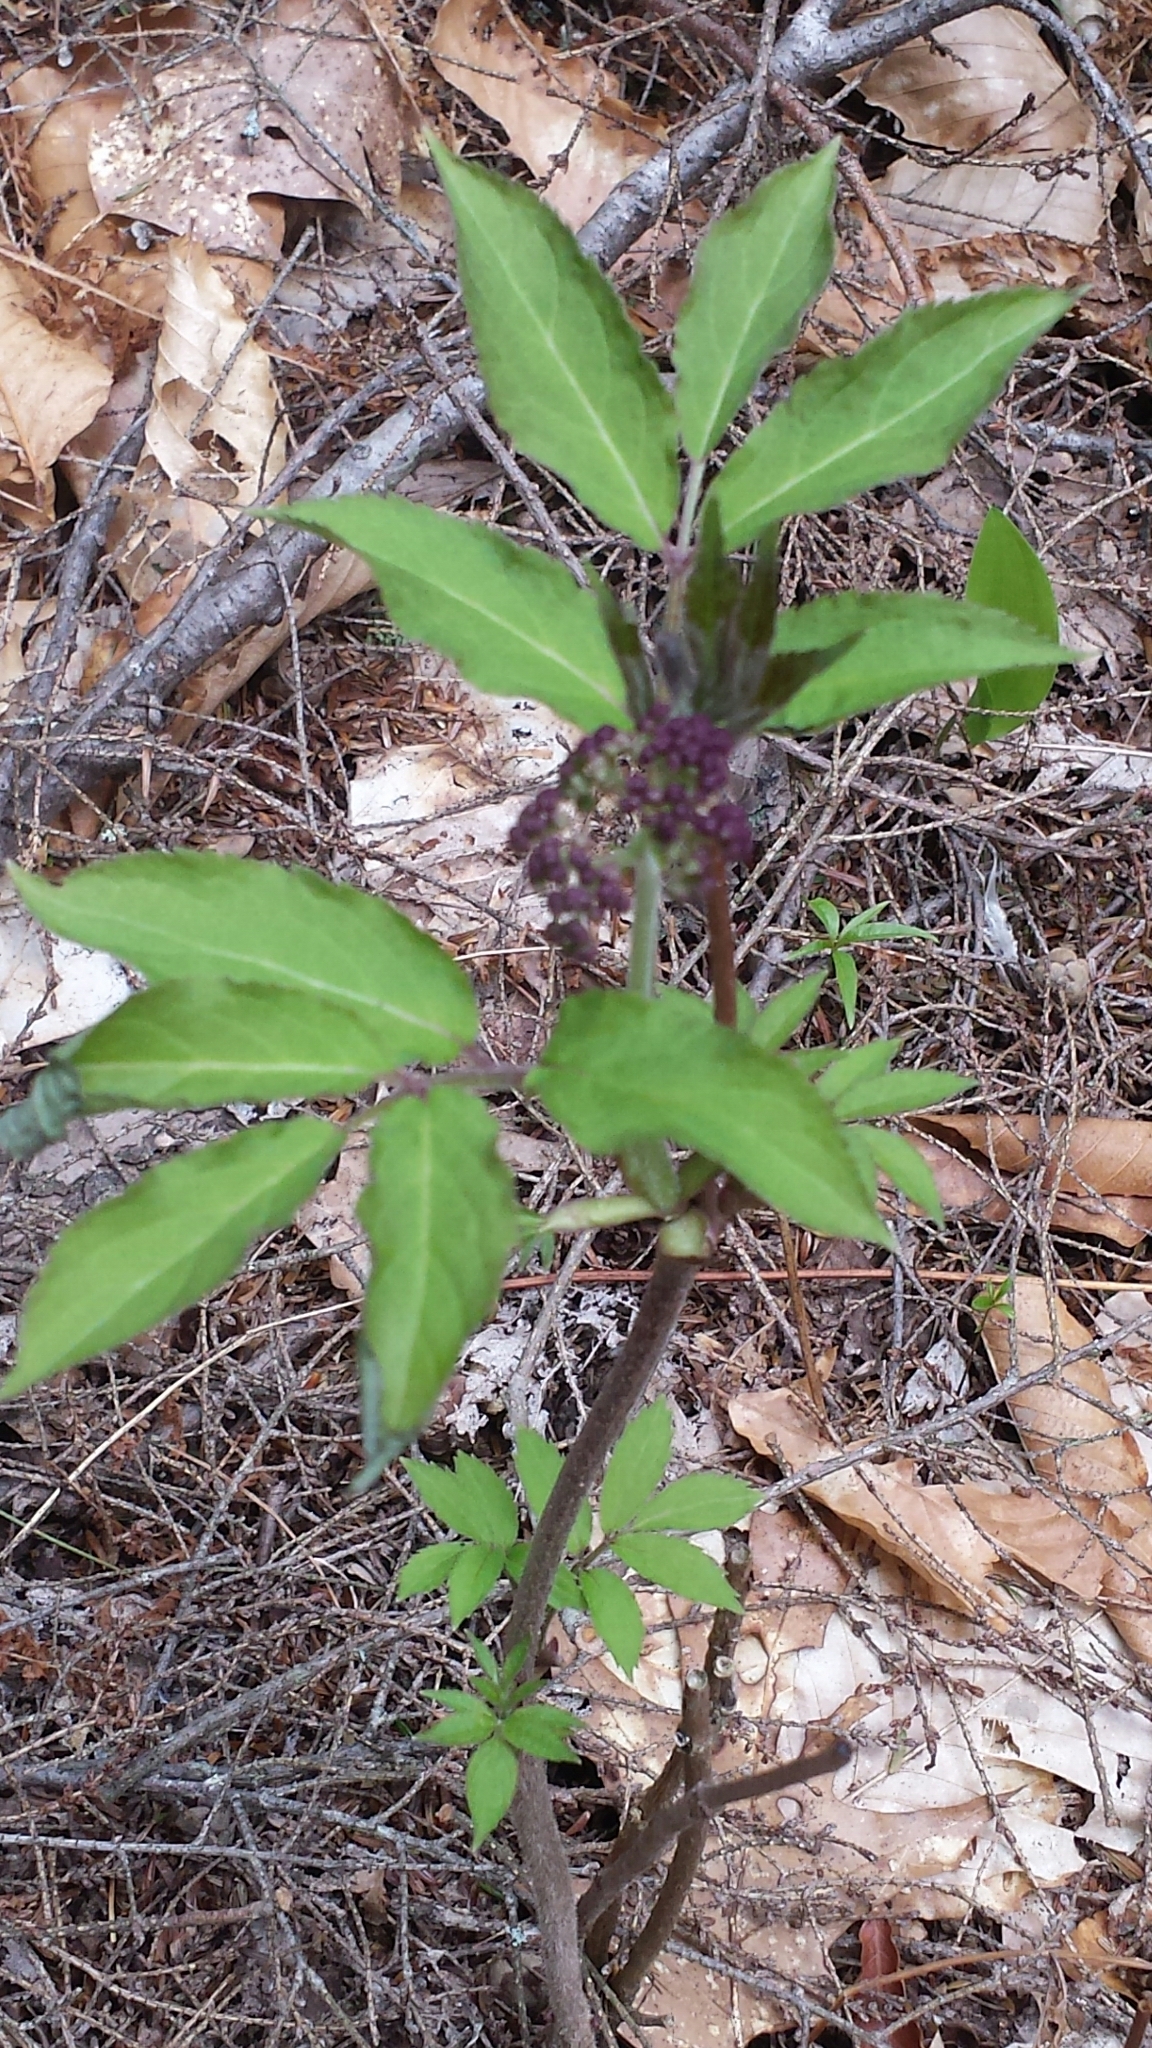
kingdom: Plantae
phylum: Tracheophyta
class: Magnoliopsida
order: Dipsacales
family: Viburnaceae
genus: Sambucus
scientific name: Sambucus racemosa
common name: Red-berried elder
